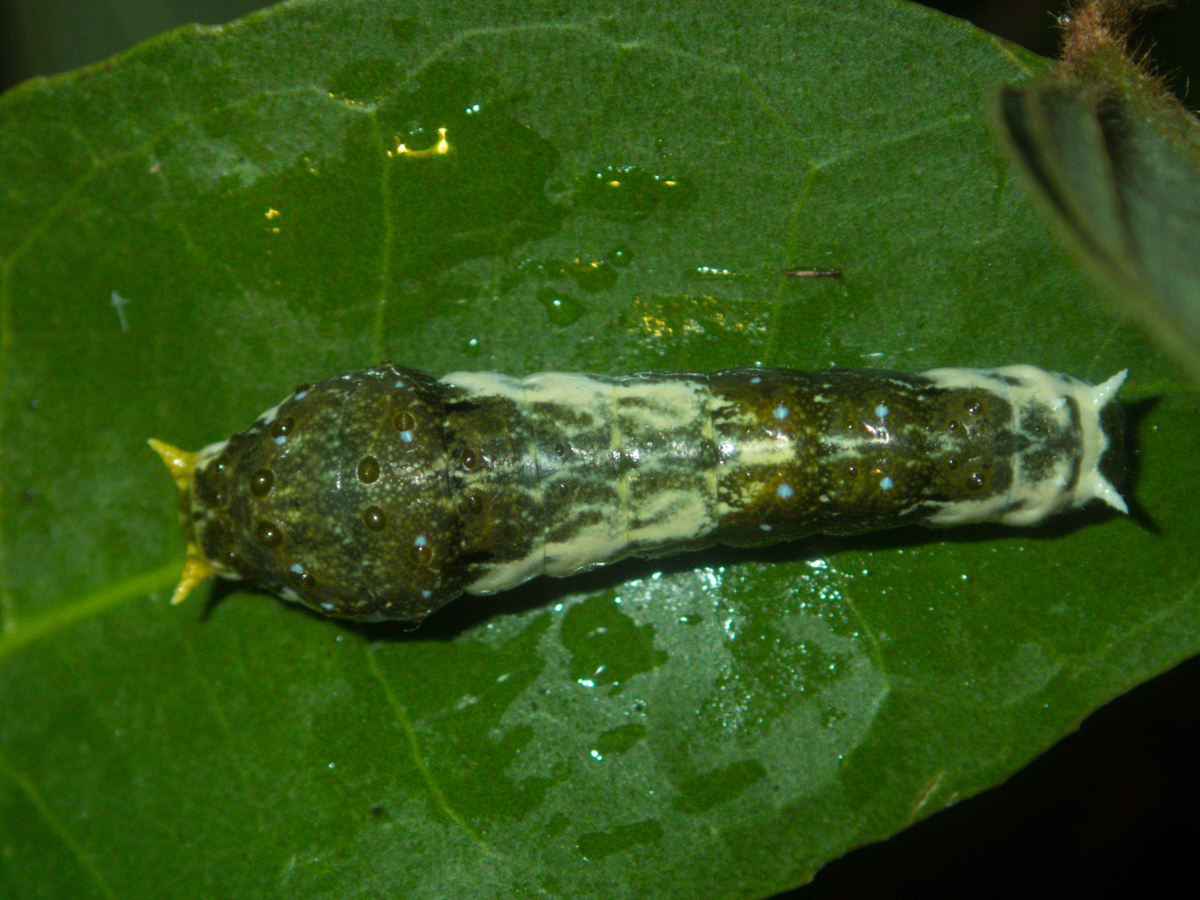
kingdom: Animalia
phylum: Arthropoda
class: Insecta
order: Lepidoptera
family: Papilionidae
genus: Papilio
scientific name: Papilio polytes
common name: Common mormon
